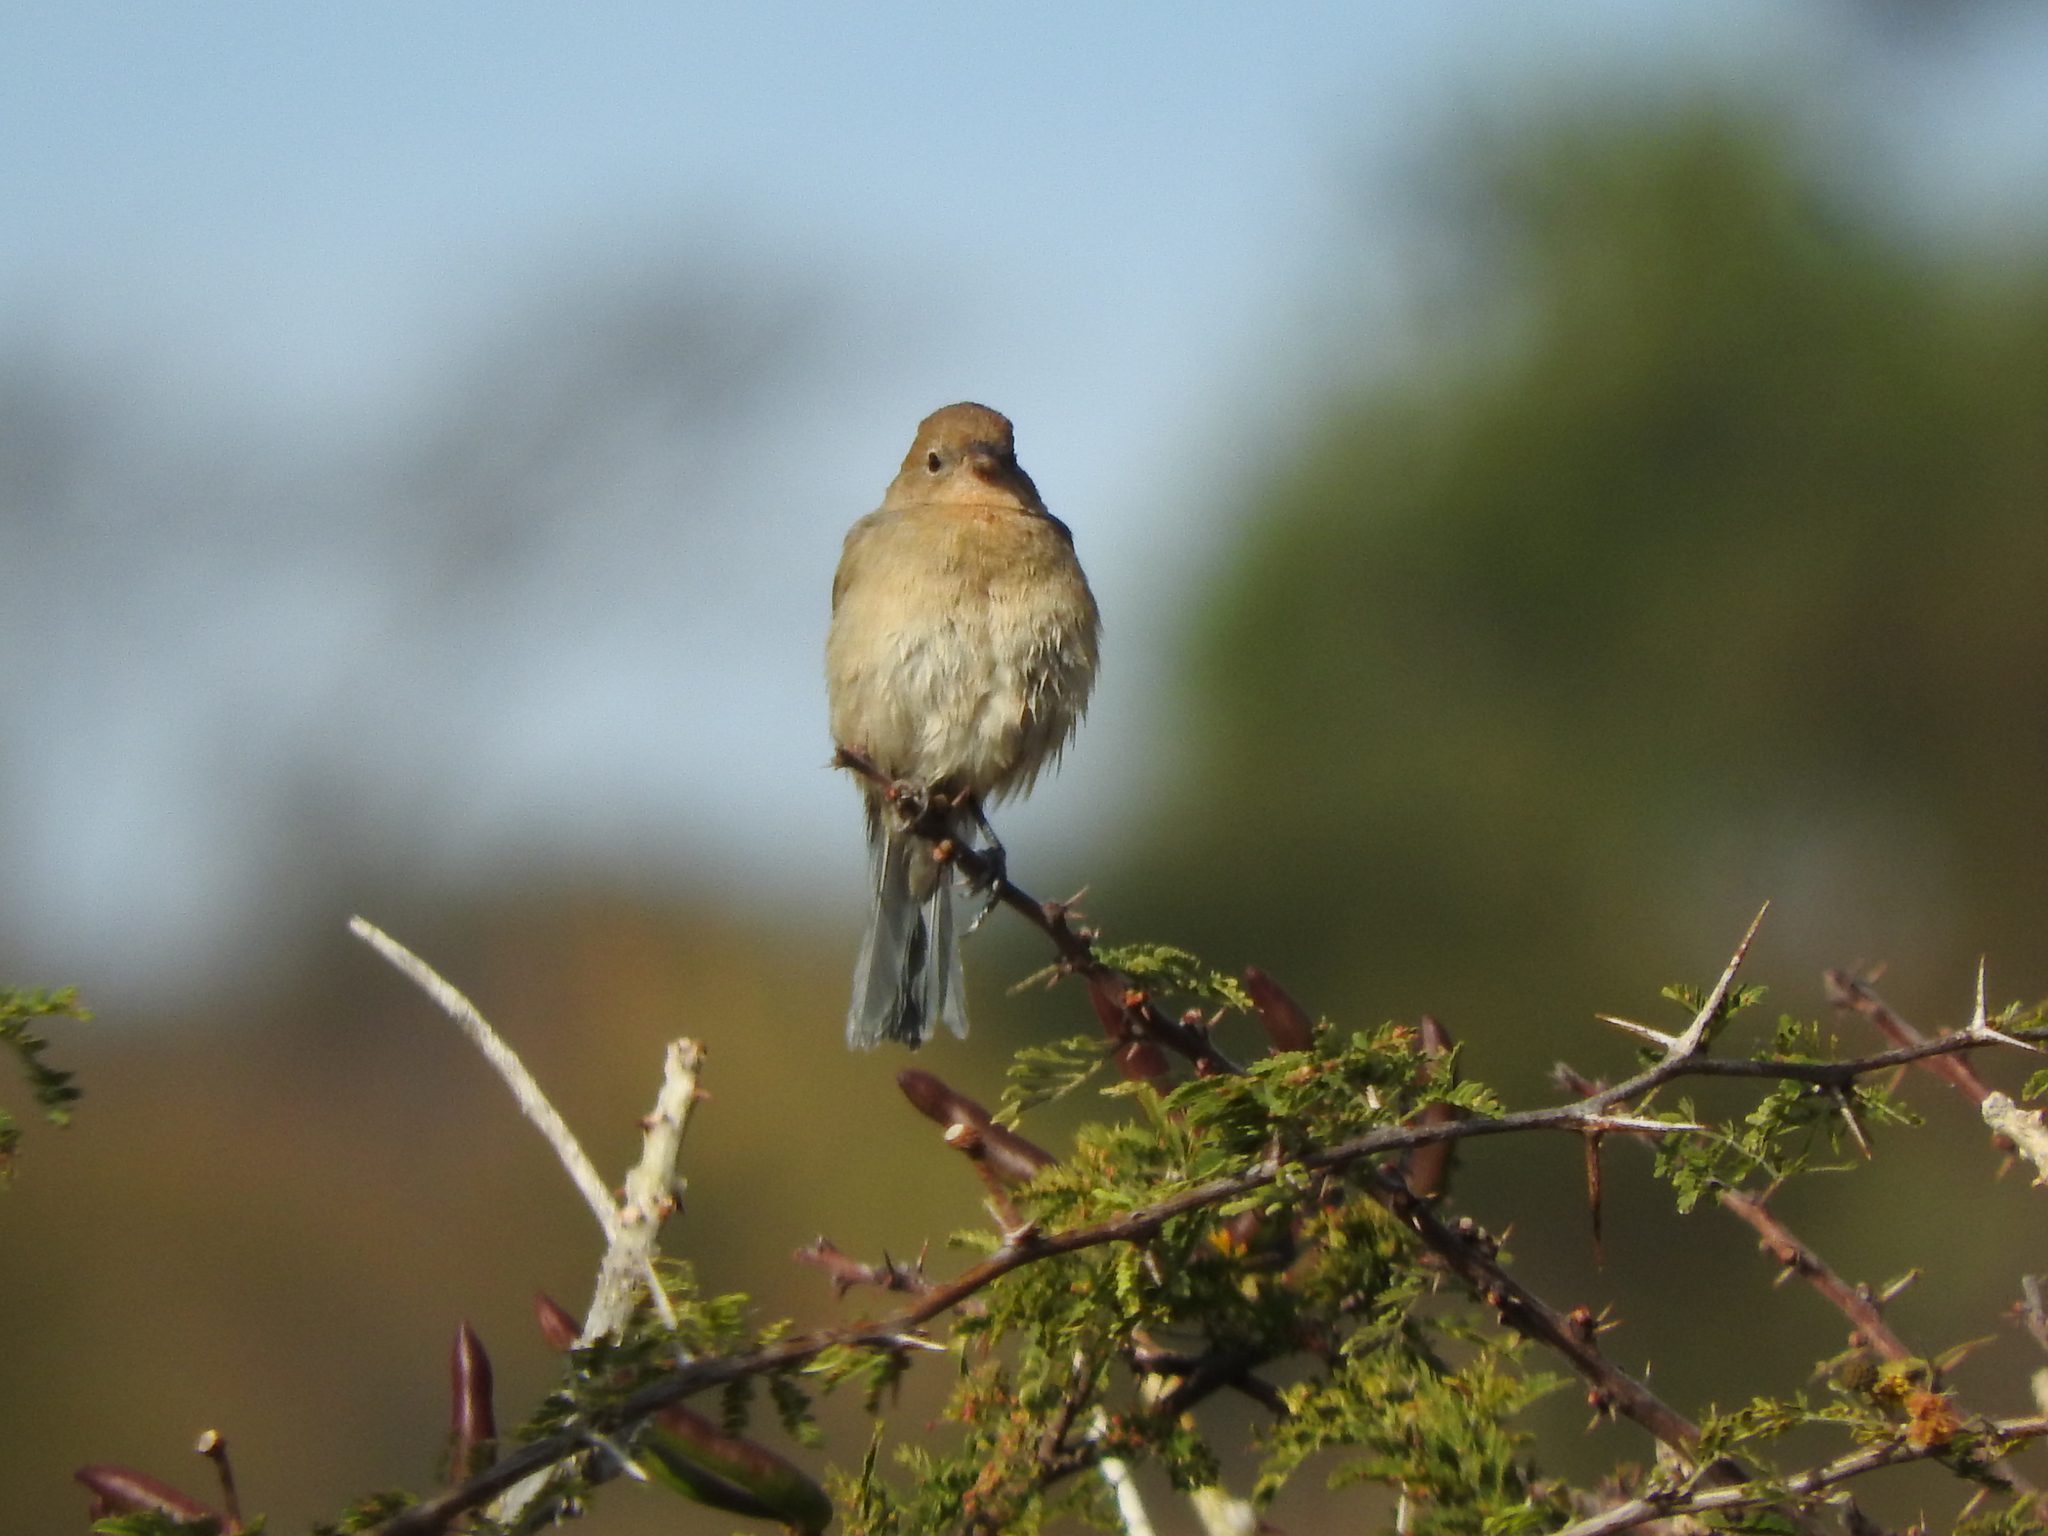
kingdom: Animalia
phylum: Chordata
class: Aves
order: Passeriformes
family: Cardinalidae
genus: Passerina
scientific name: Passerina versicolor
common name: Varied bunting
